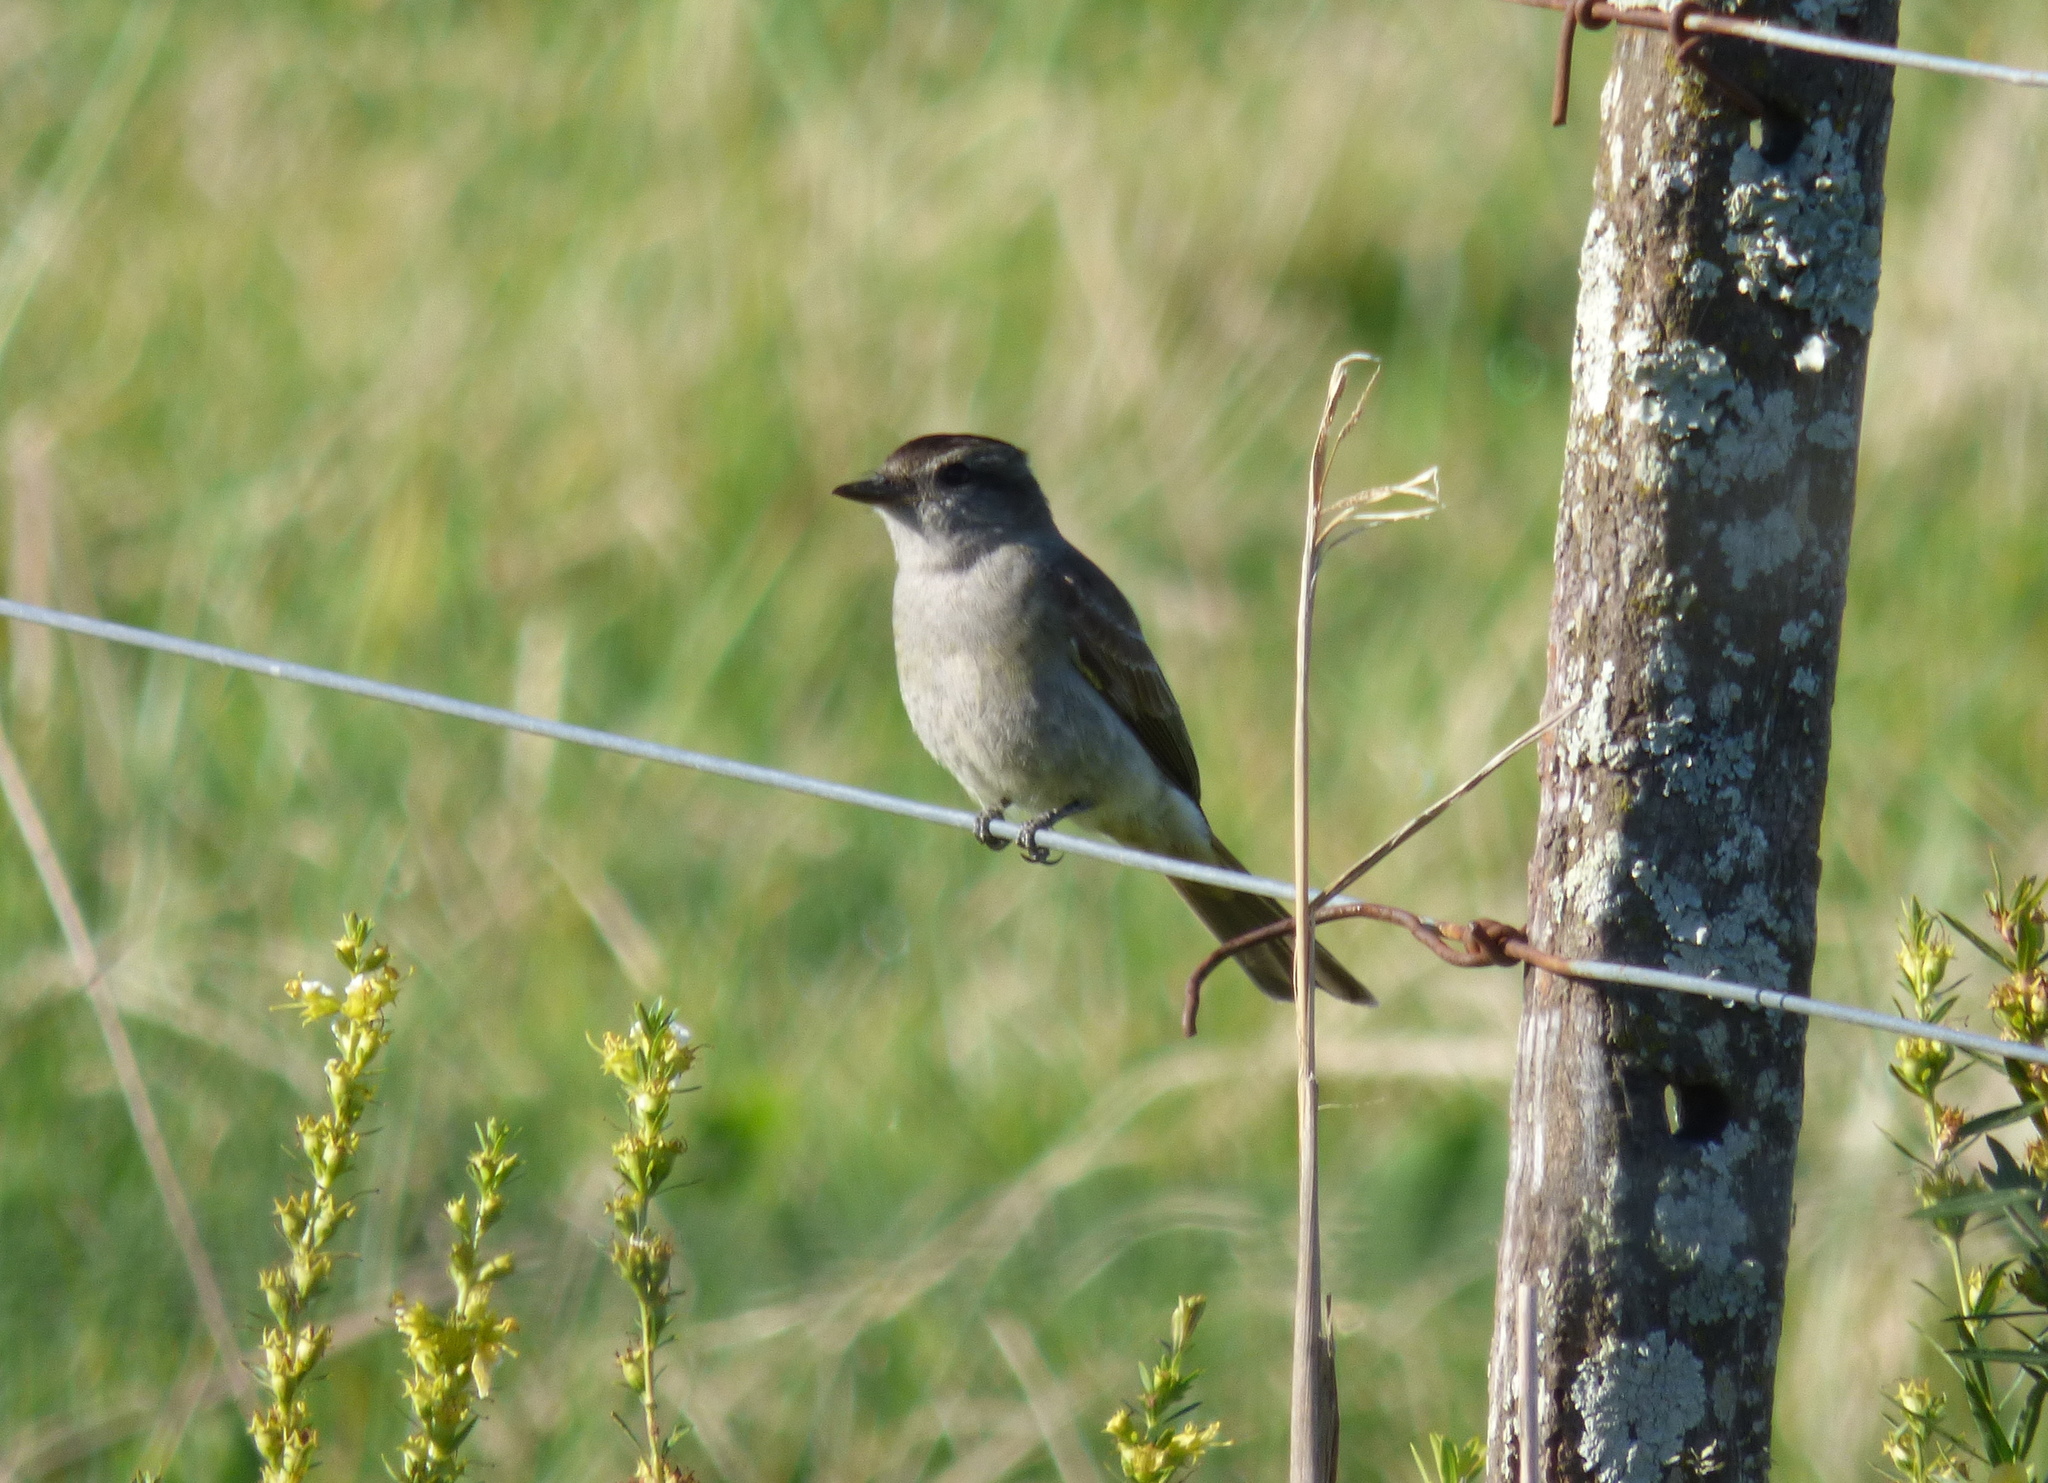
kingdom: Animalia
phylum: Chordata
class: Aves
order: Passeriformes
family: Tyrannidae
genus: Empidonomus
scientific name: Empidonomus aurantioatrocristatus
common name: Crowned slaty flycatcher
